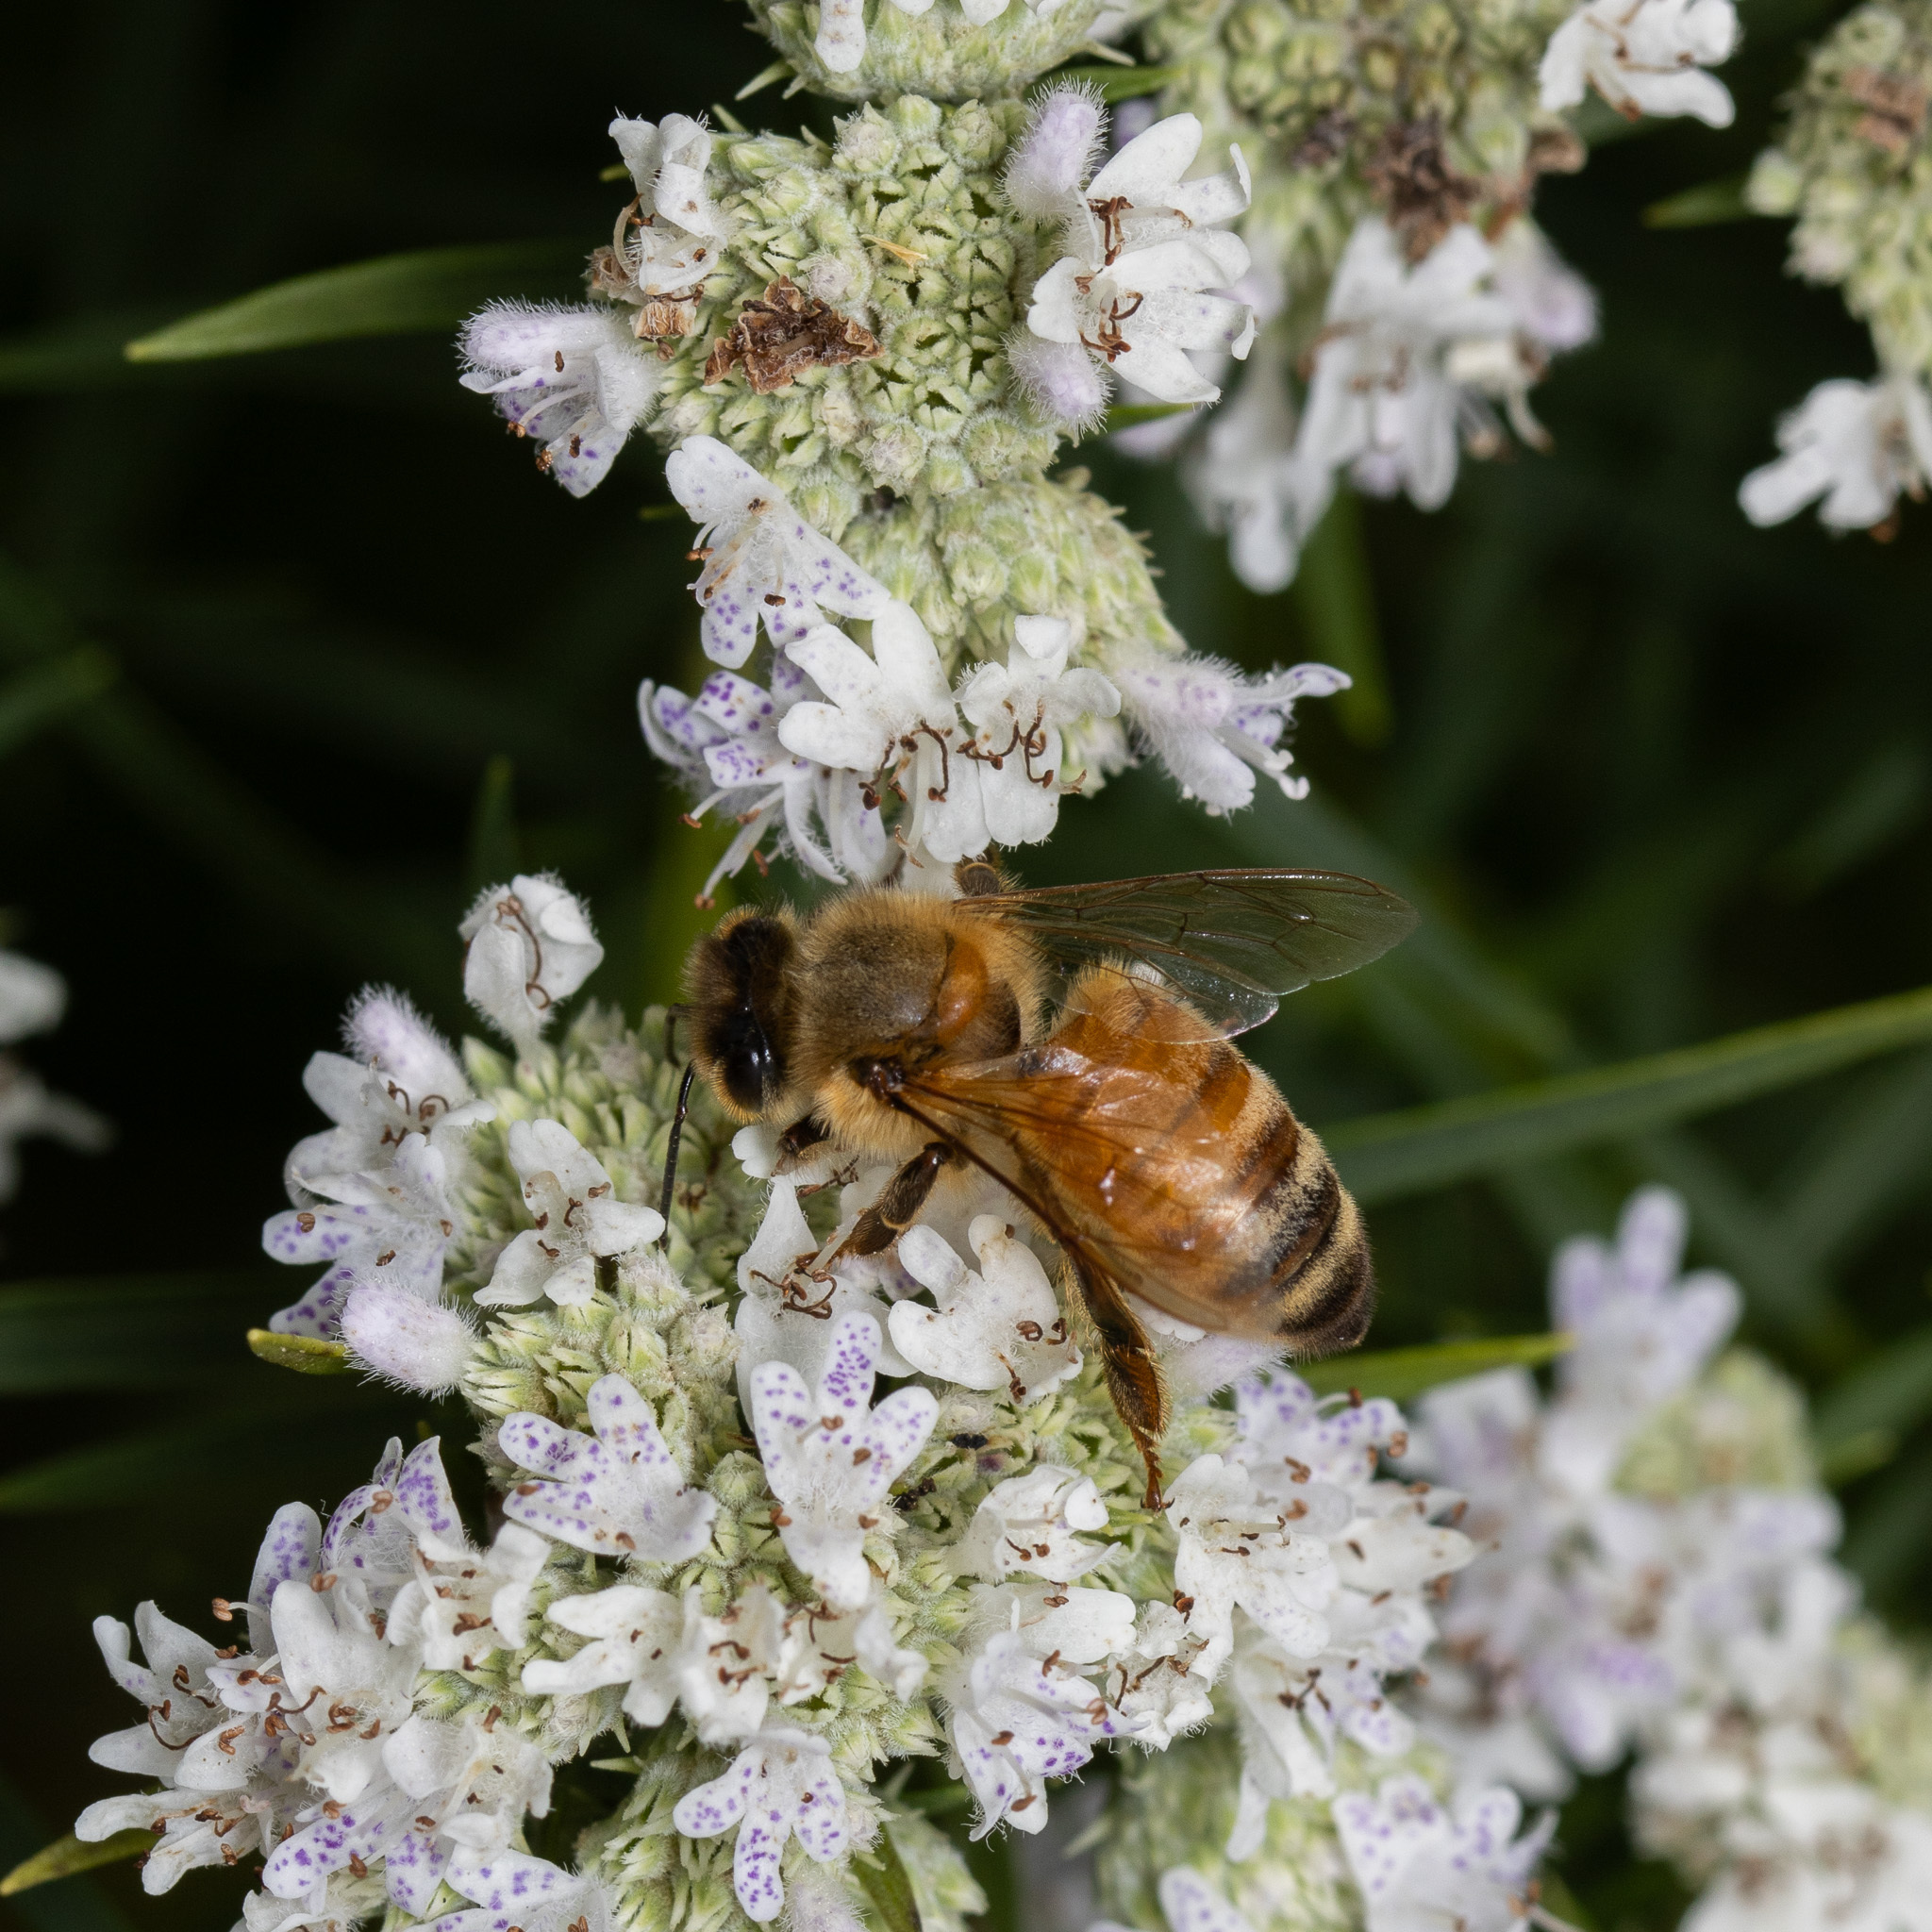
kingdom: Animalia
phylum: Arthropoda
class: Insecta
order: Hymenoptera
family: Apidae
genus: Apis
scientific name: Apis mellifera
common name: Honey bee
